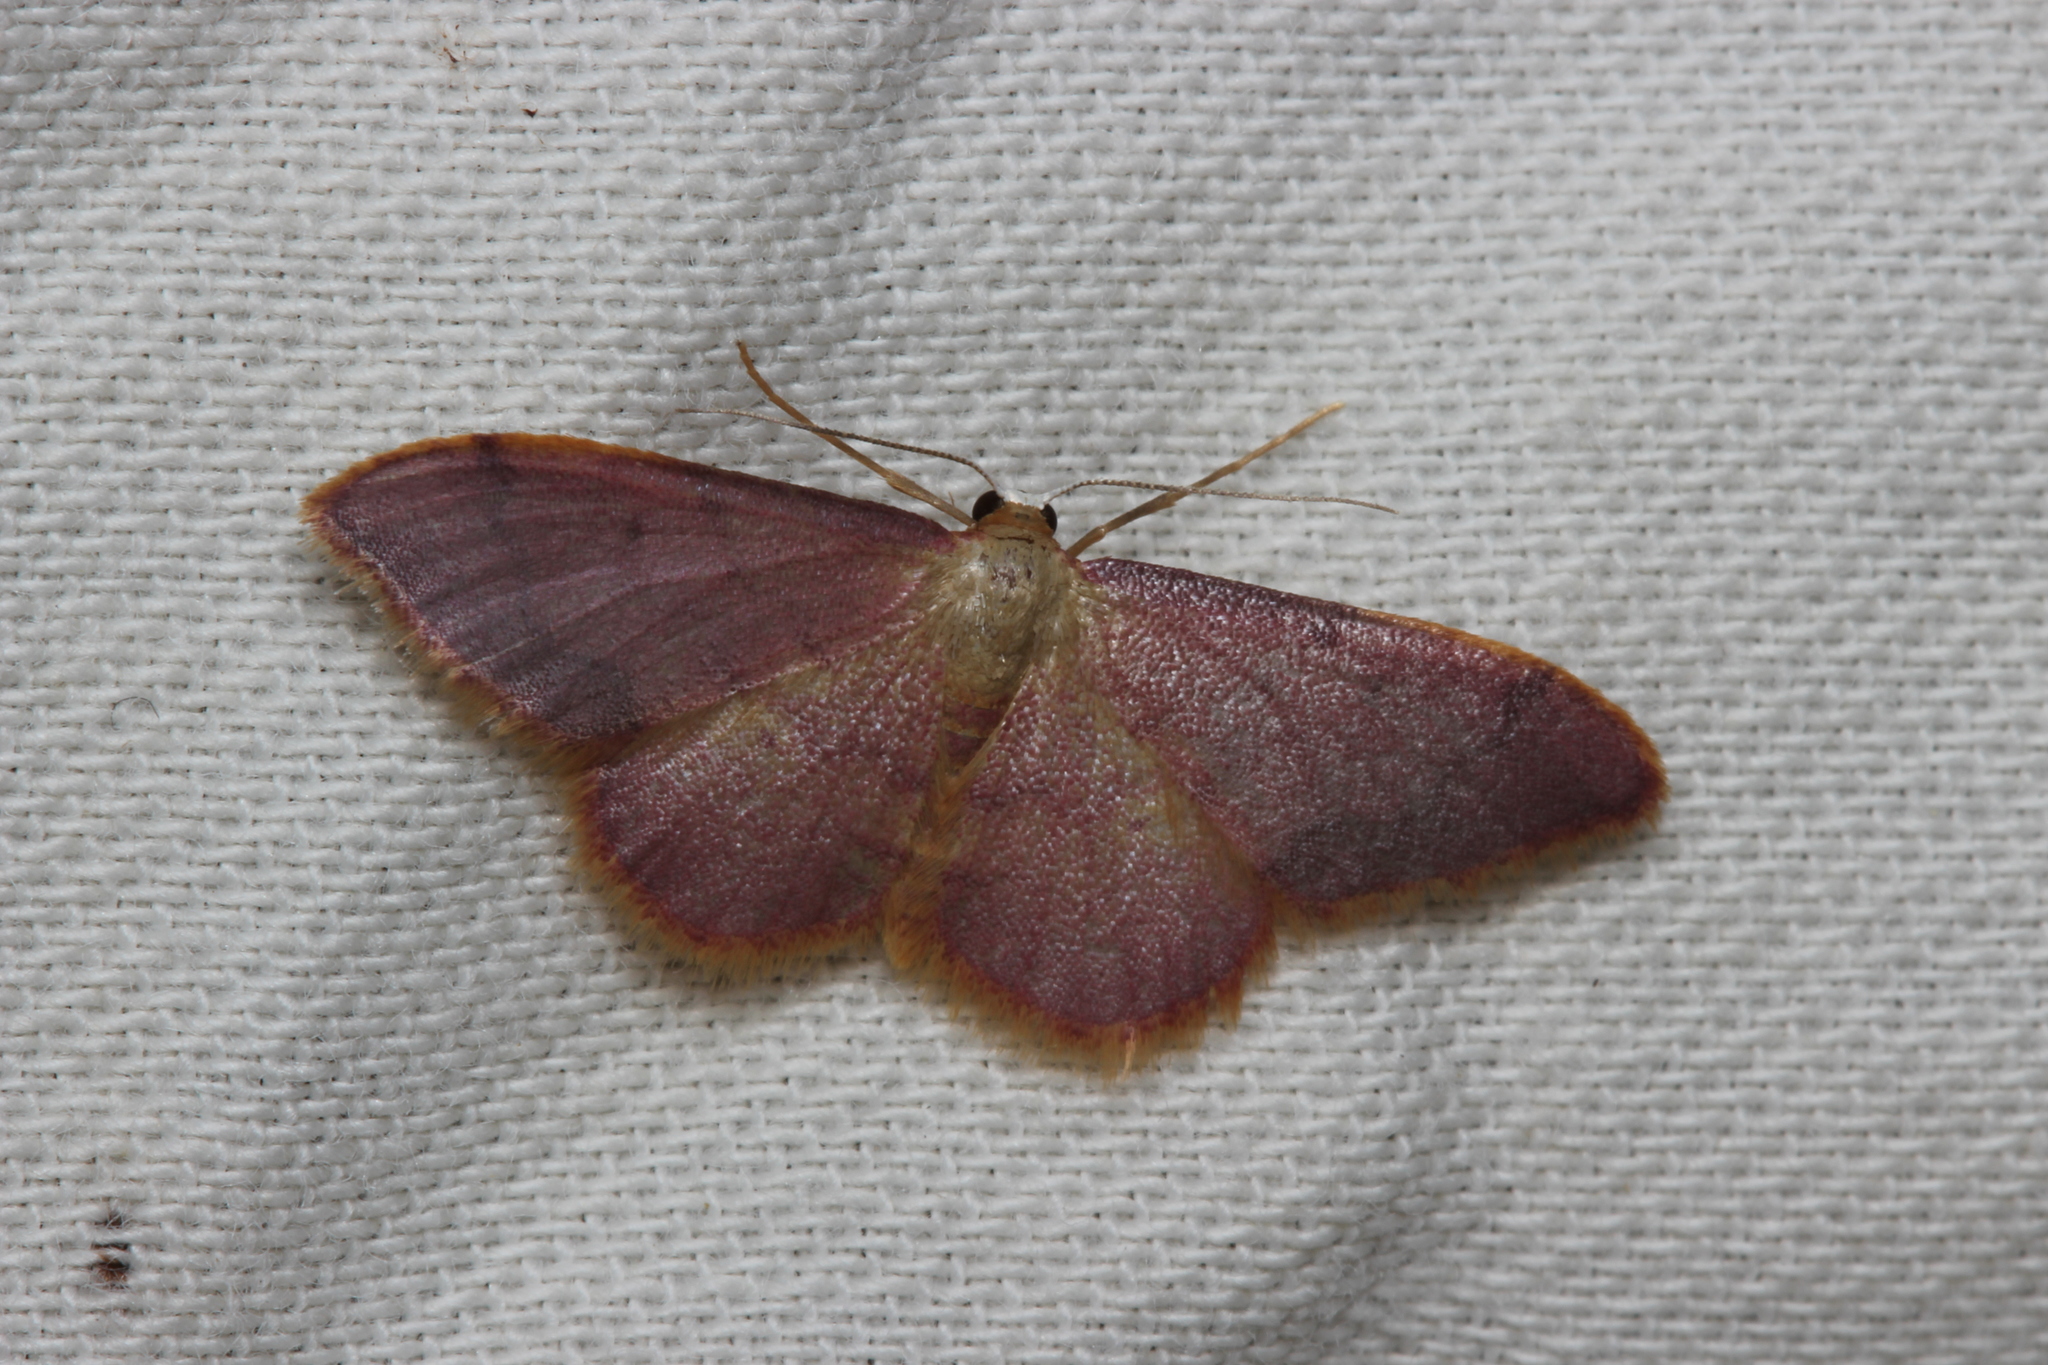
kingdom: Animalia
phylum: Arthropoda
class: Insecta
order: Lepidoptera
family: Geometridae
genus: Idaea
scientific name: Idaea ostrinaria
